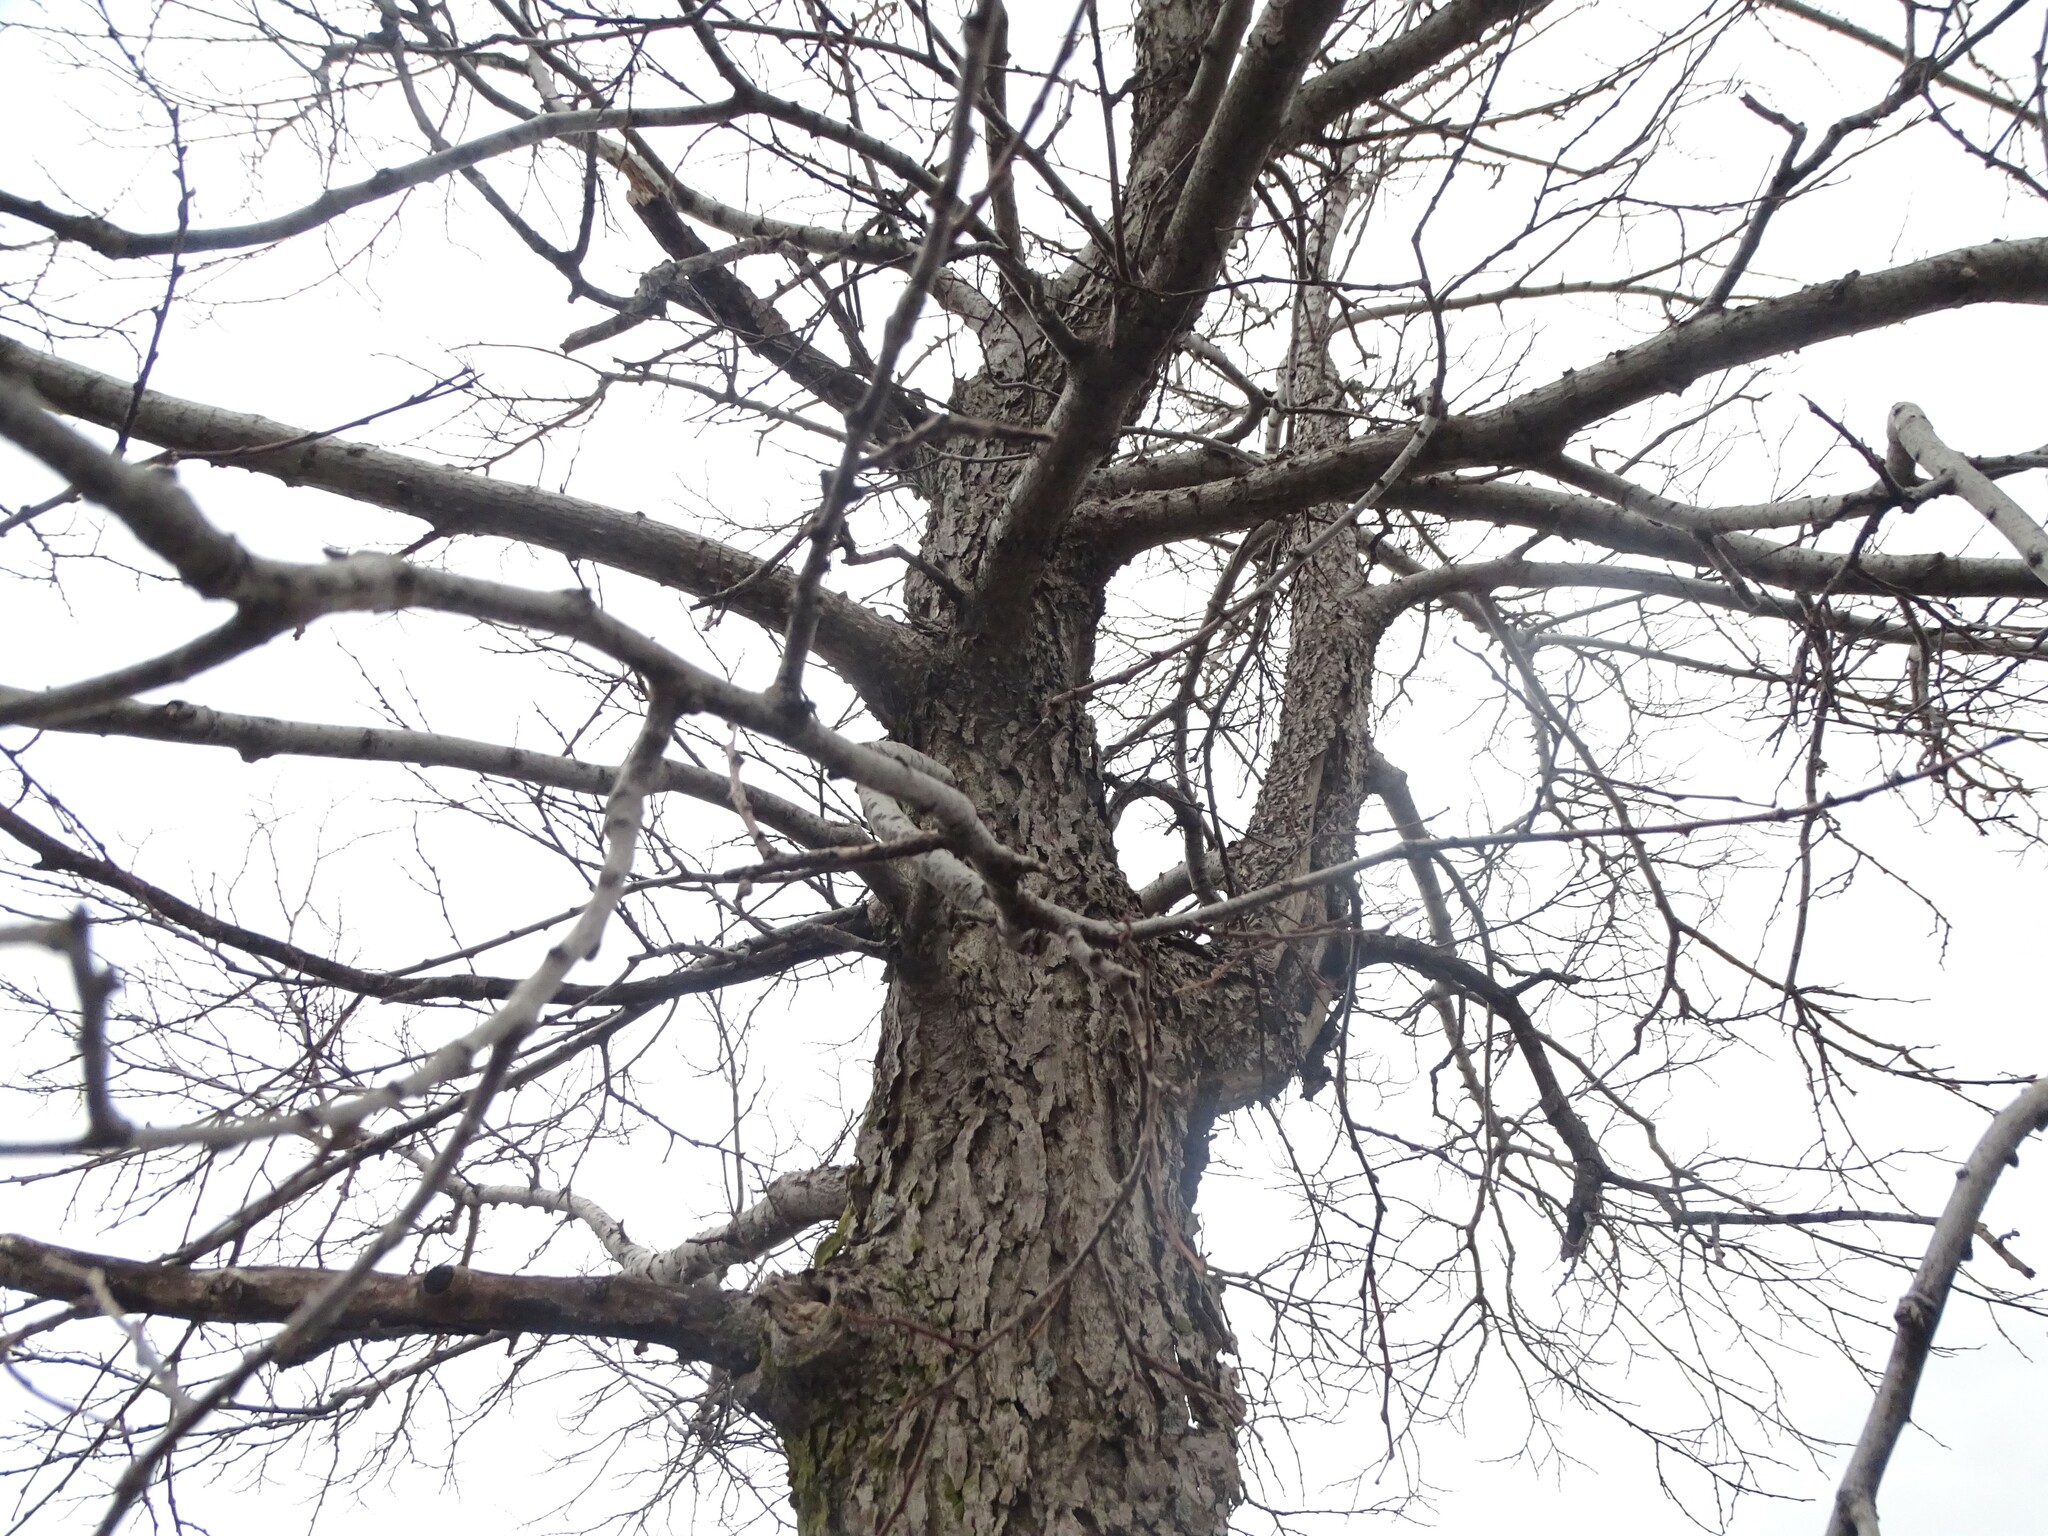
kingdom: Plantae
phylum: Tracheophyta
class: Magnoliopsida
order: Rosales
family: Cannabaceae
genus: Celtis
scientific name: Celtis occidentalis
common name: Common hackberry
